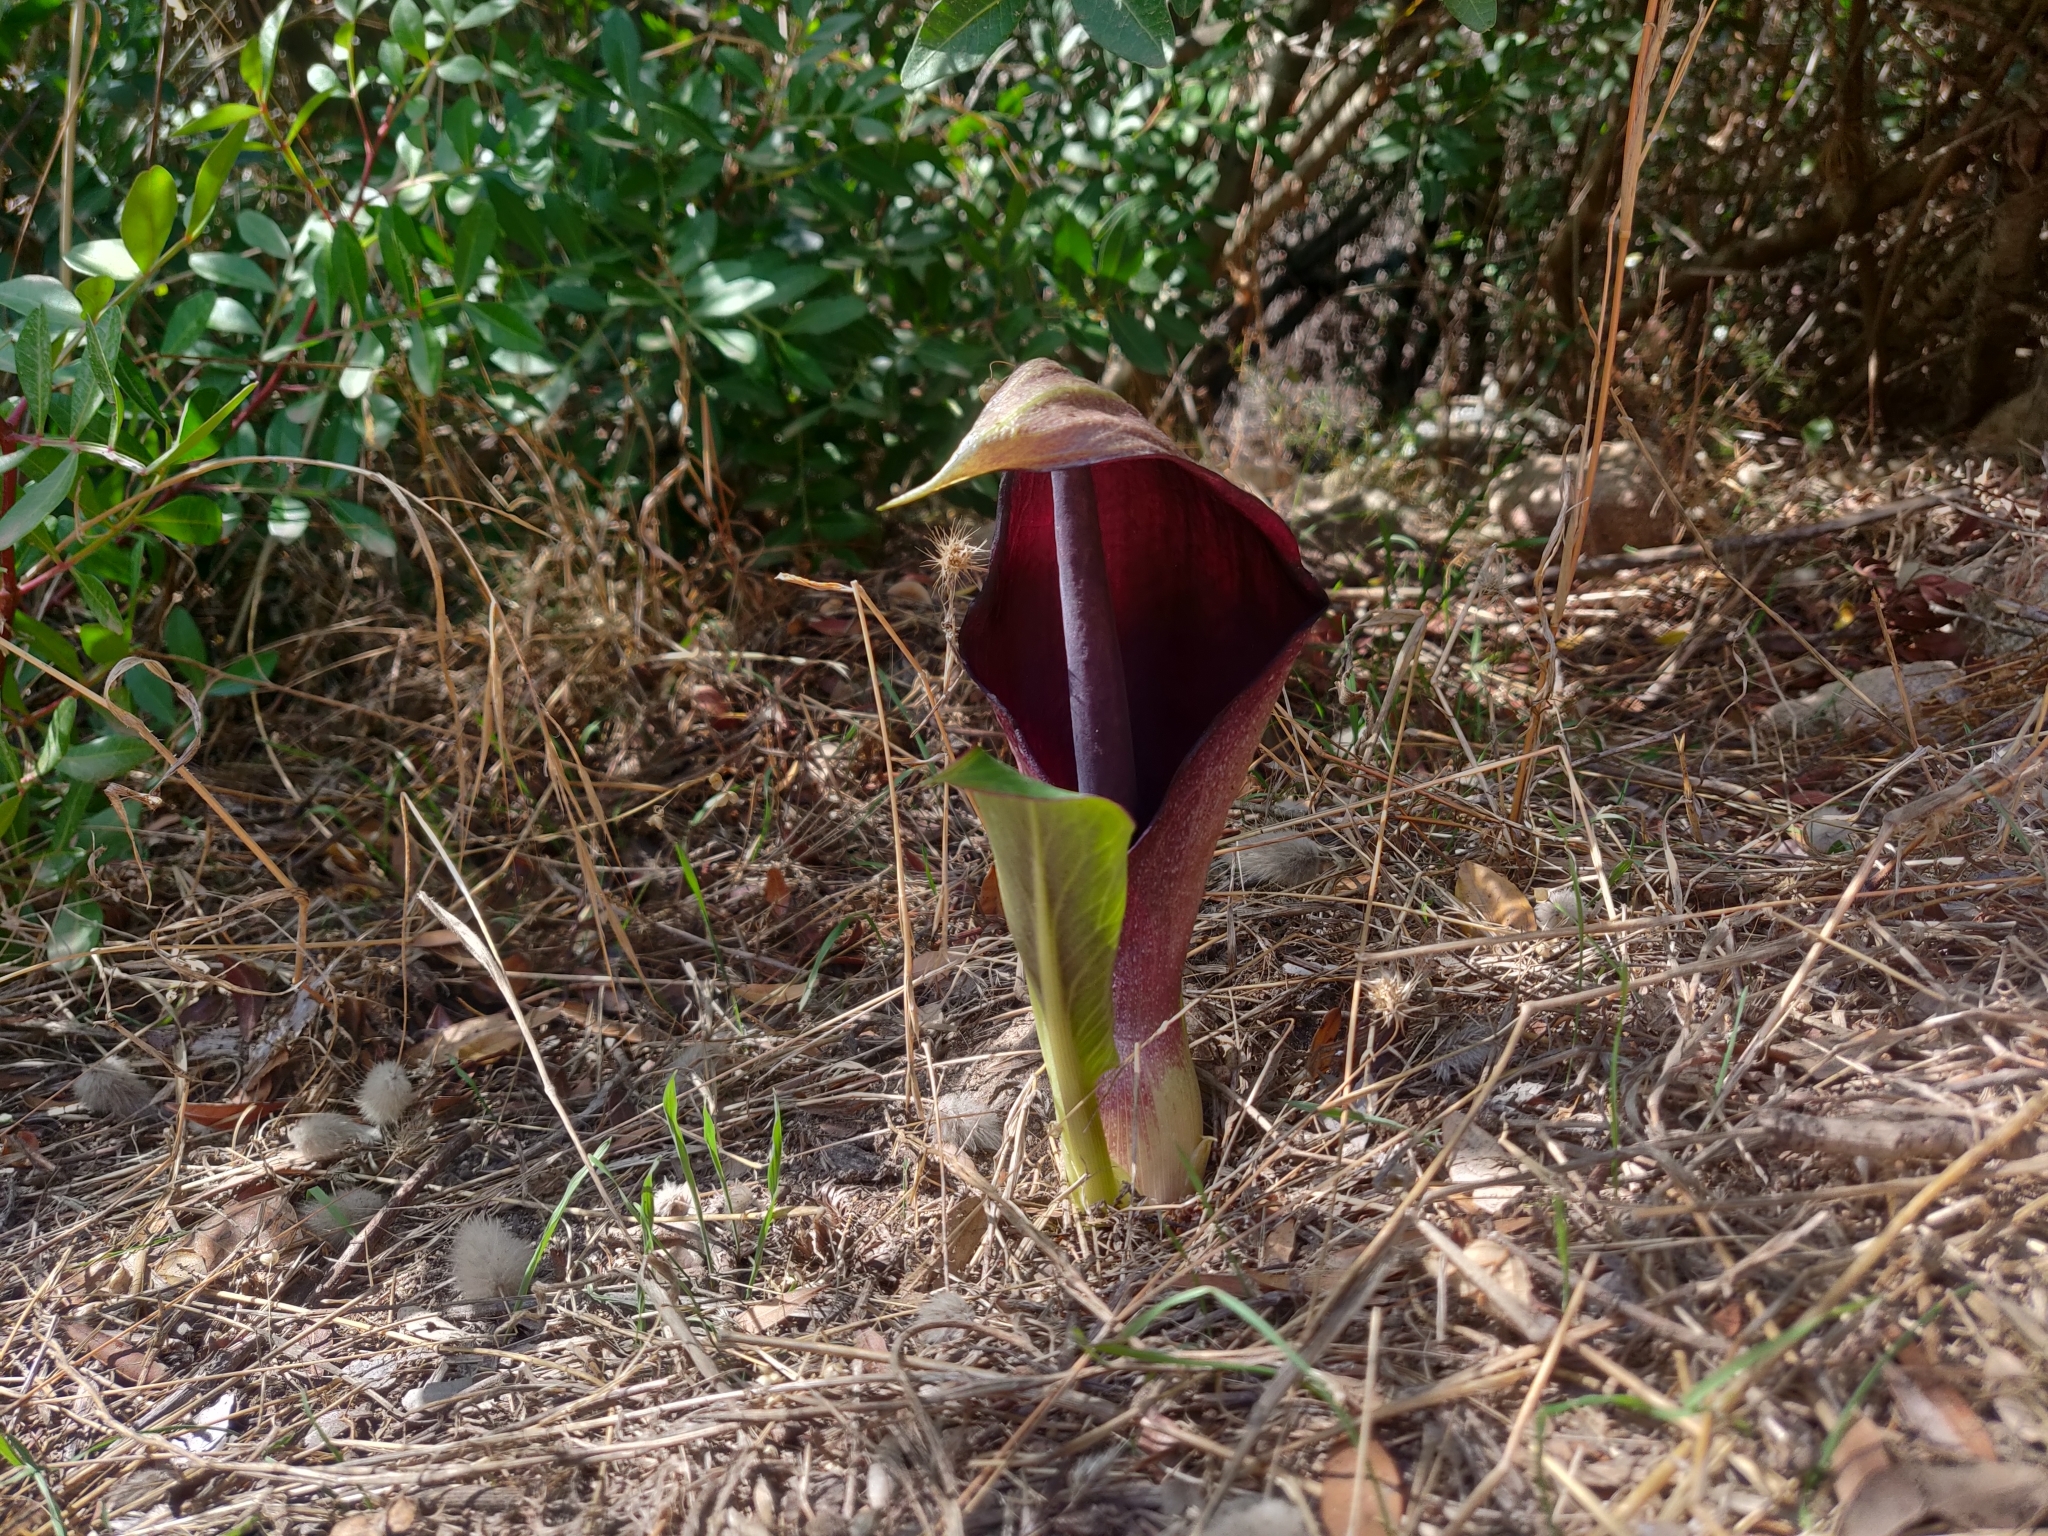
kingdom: Plantae
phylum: Tracheophyta
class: Liliopsida
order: Alismatales
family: Araceae
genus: Arum
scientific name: Arum pictum
